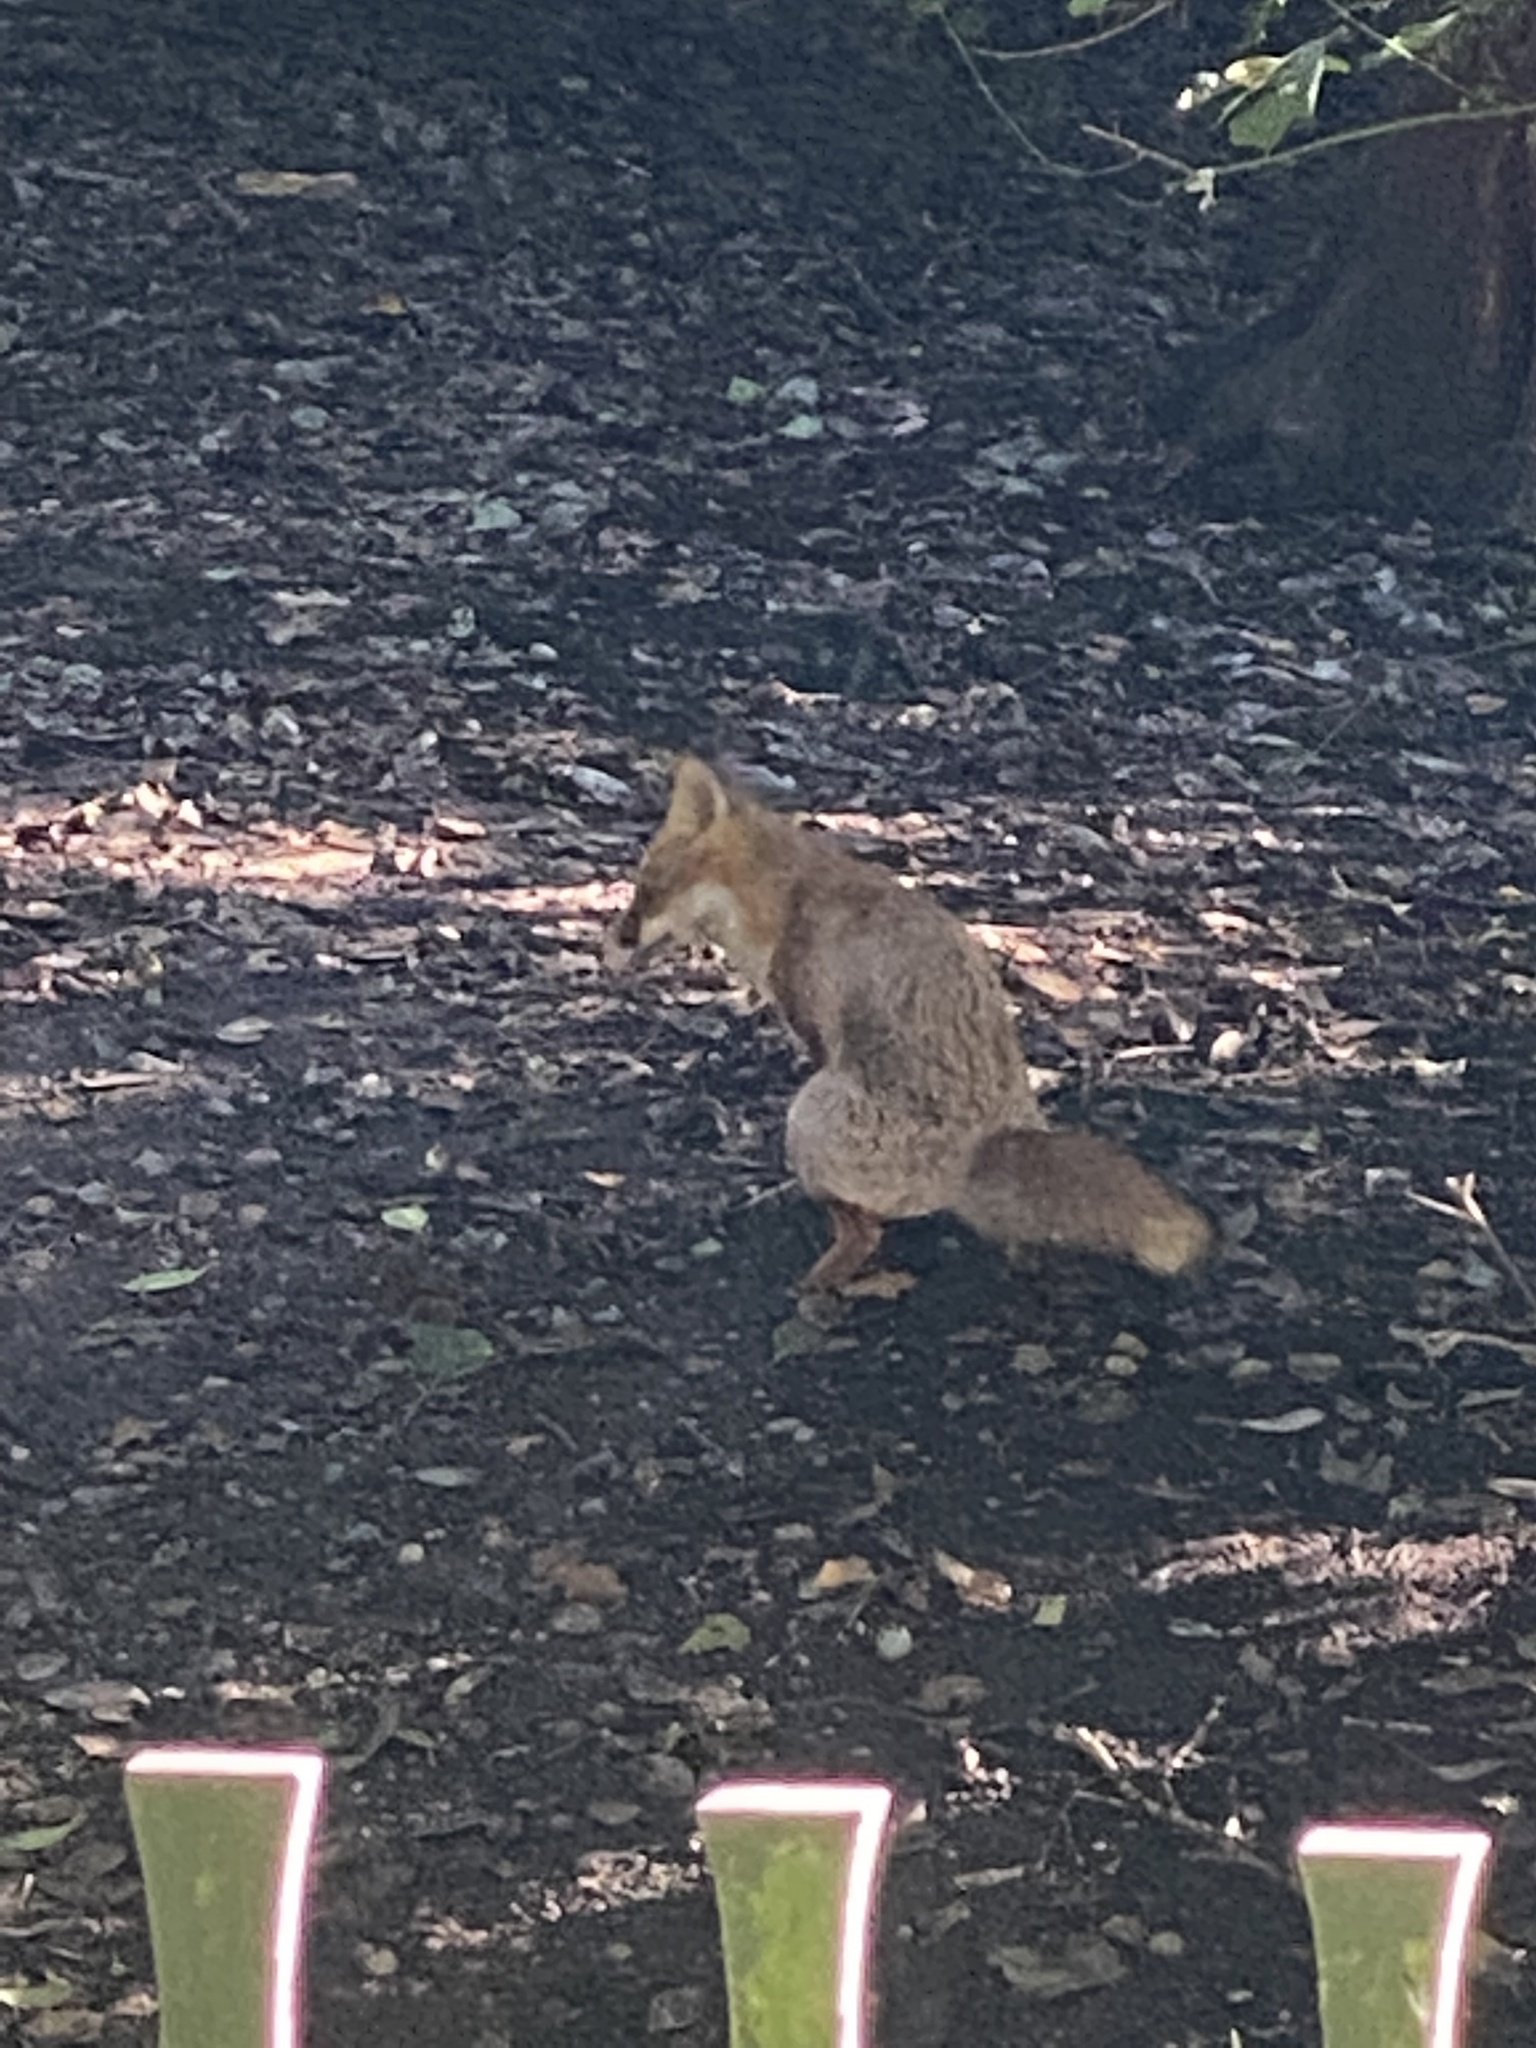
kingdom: Animalia
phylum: Chordata
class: Mammalia
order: Carnivora
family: Canidae
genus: Vulpes
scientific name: Vulpes vulpes
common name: Red fox
